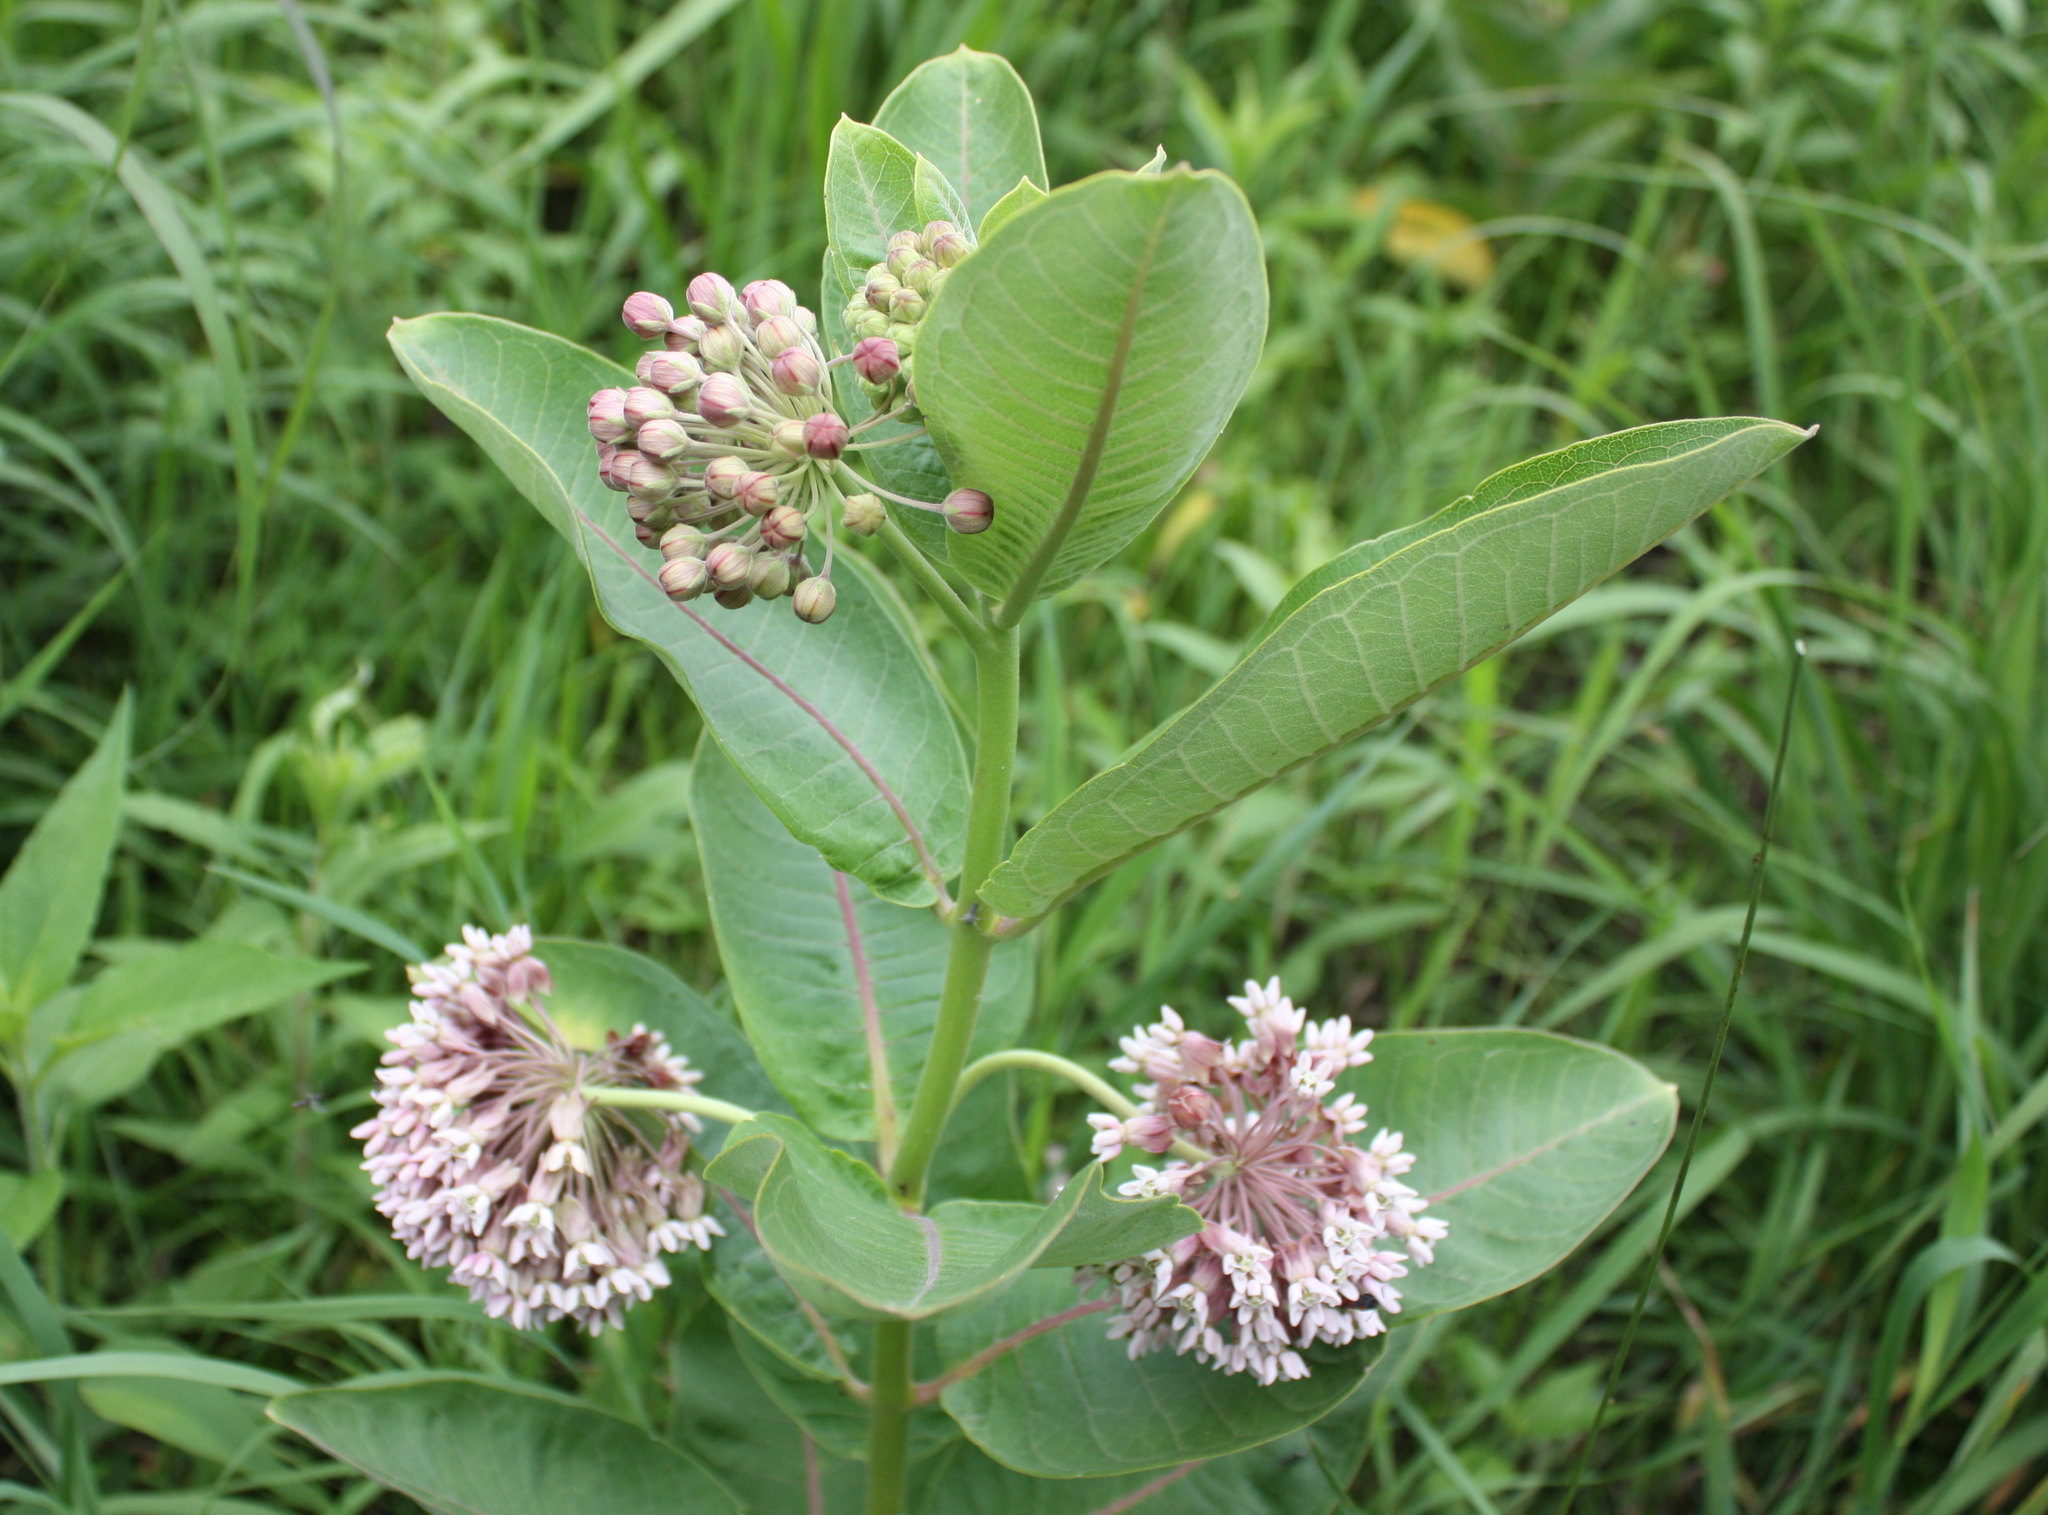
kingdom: Plantae
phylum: Tracheophyta
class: Magnoliopsida
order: Gentianales
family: Apocynaceae
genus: Asclepias
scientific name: Asclepias syriaca
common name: Common milkweed
